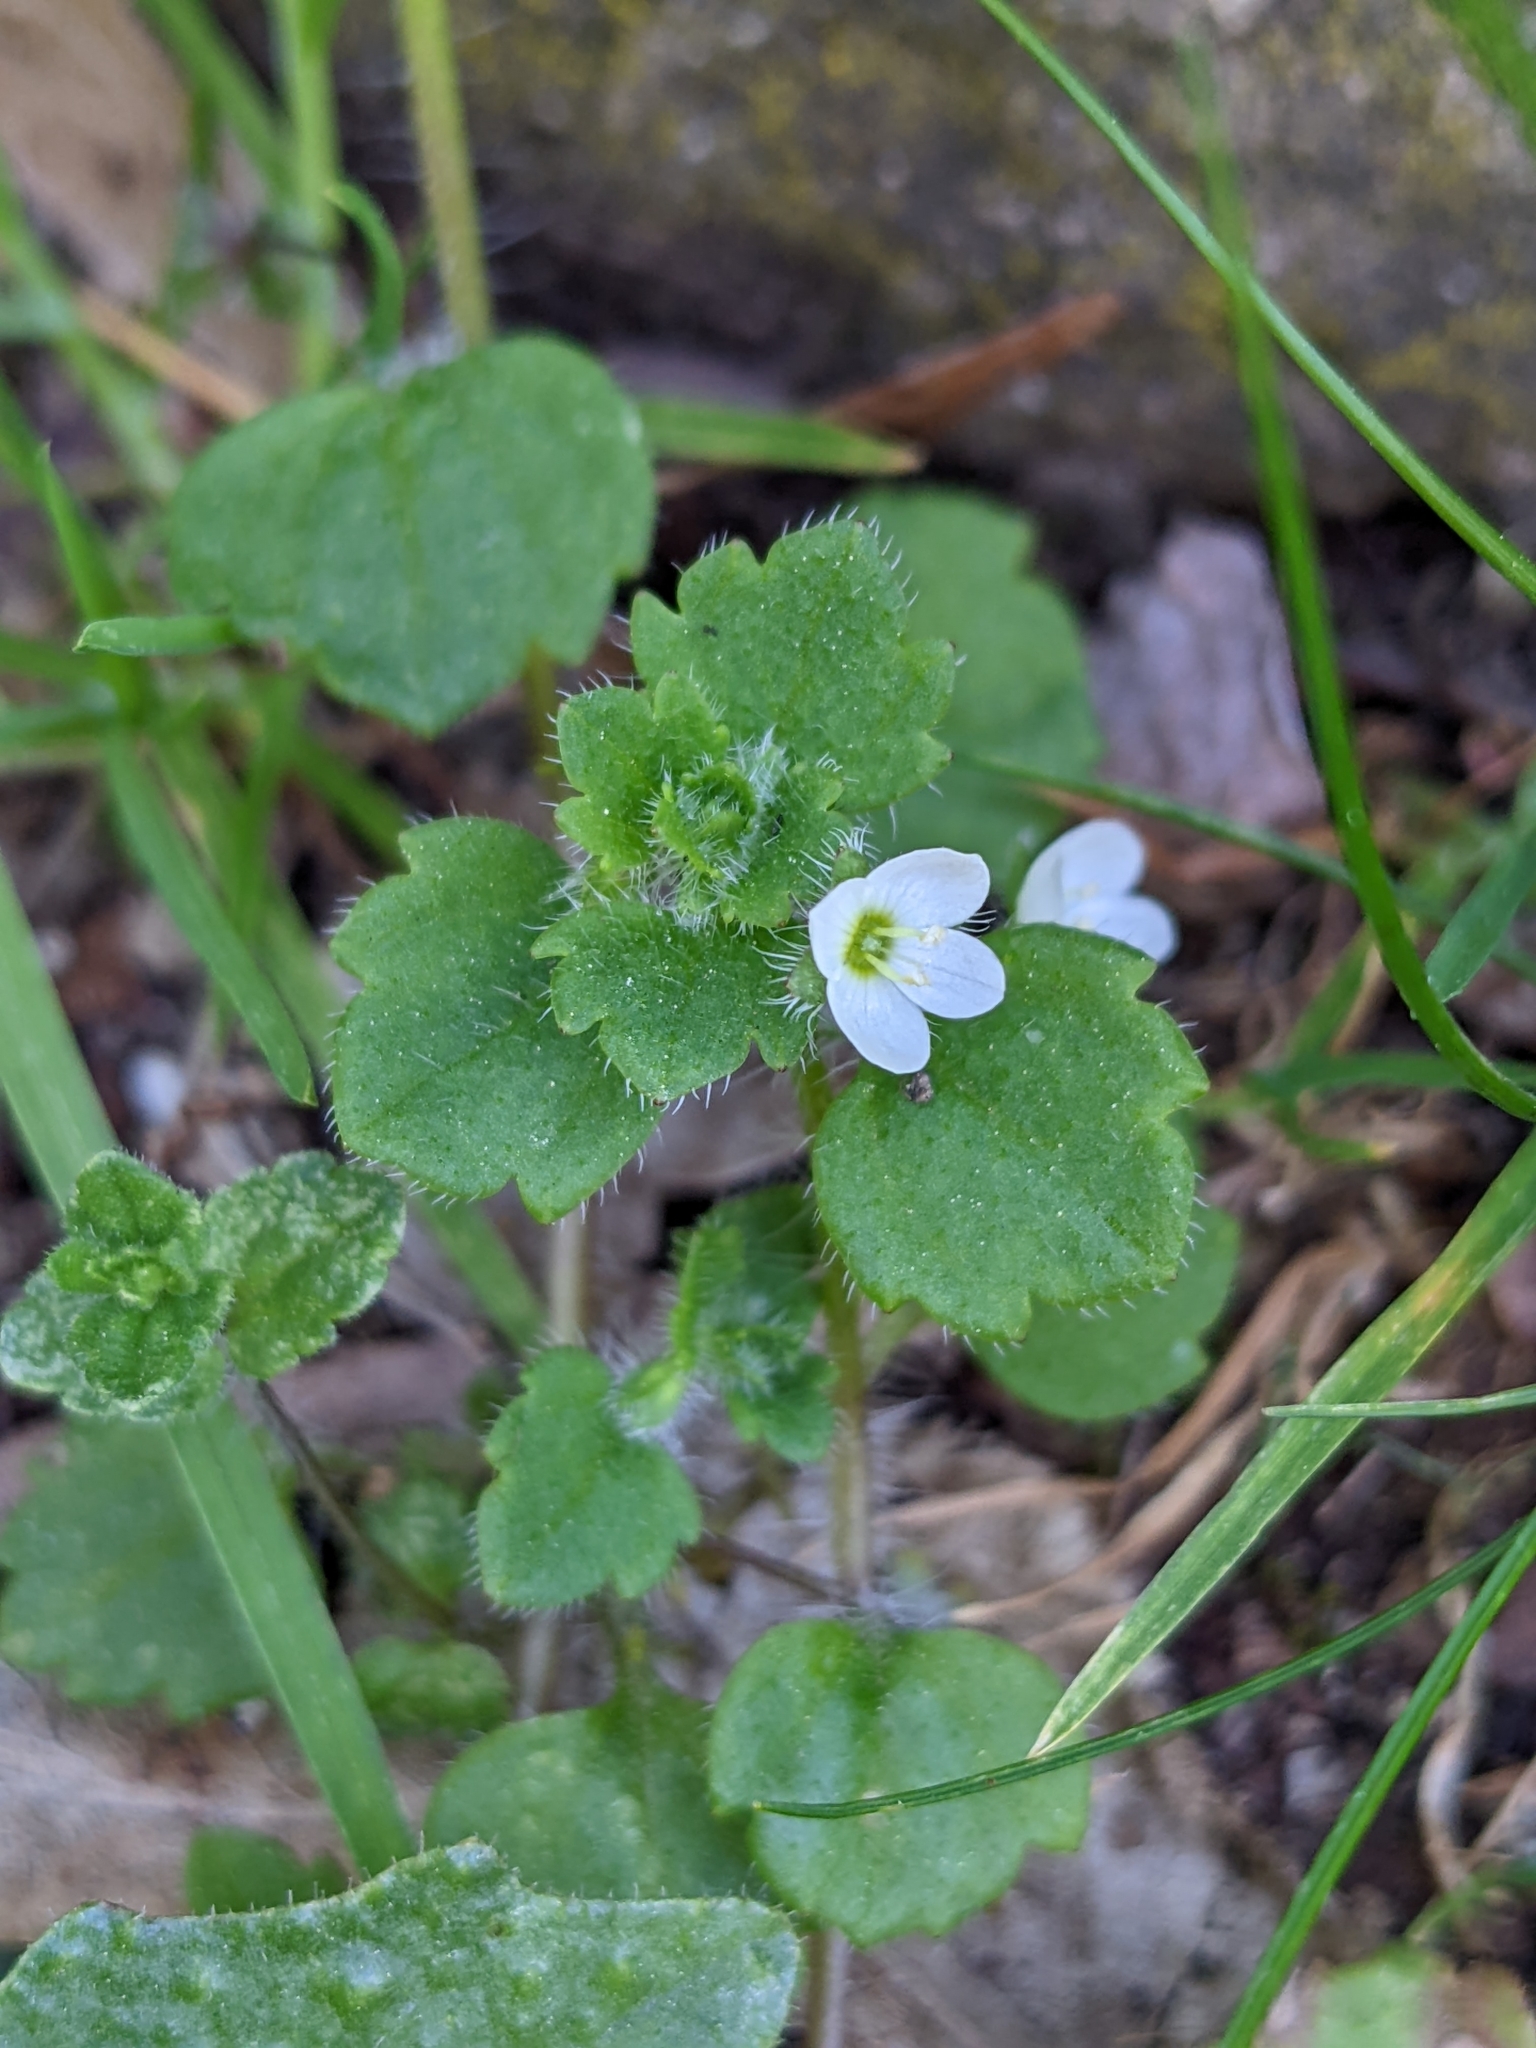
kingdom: Plantae
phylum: Tracheophyta
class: Magnoliopsida
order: Lamiales
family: Plantaginaceae
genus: Veronica
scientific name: Veronica cymbalaria
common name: Pale speedwell
